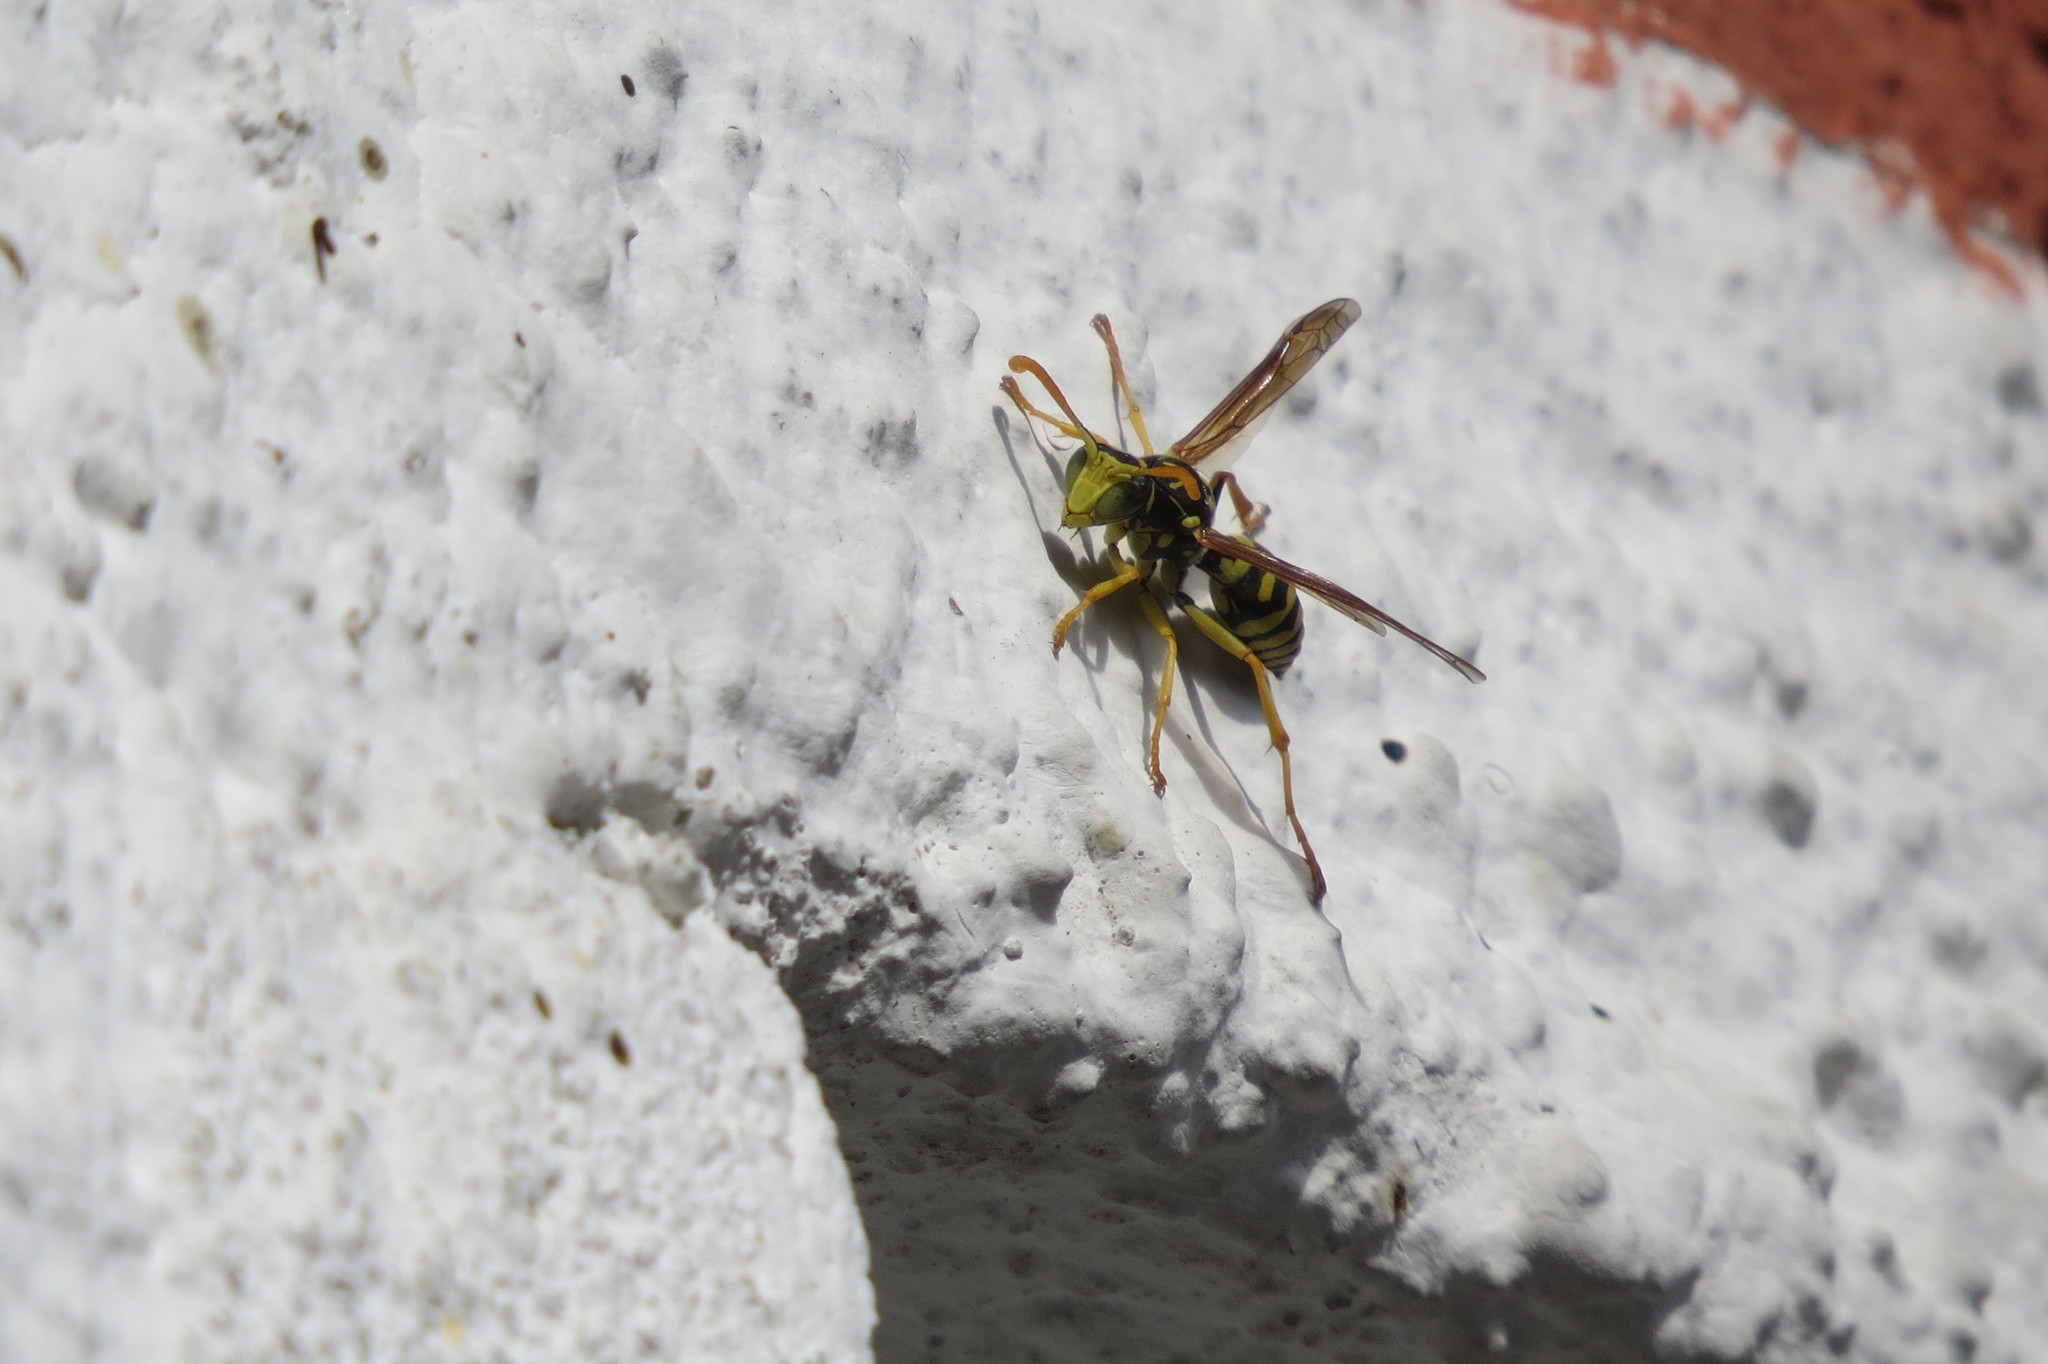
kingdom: Animalia
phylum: Arthropoda
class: Insecta
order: Hymenoptera
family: Eumenidae
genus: Polistes
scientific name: Polistes gallicus
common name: Paper wasp
